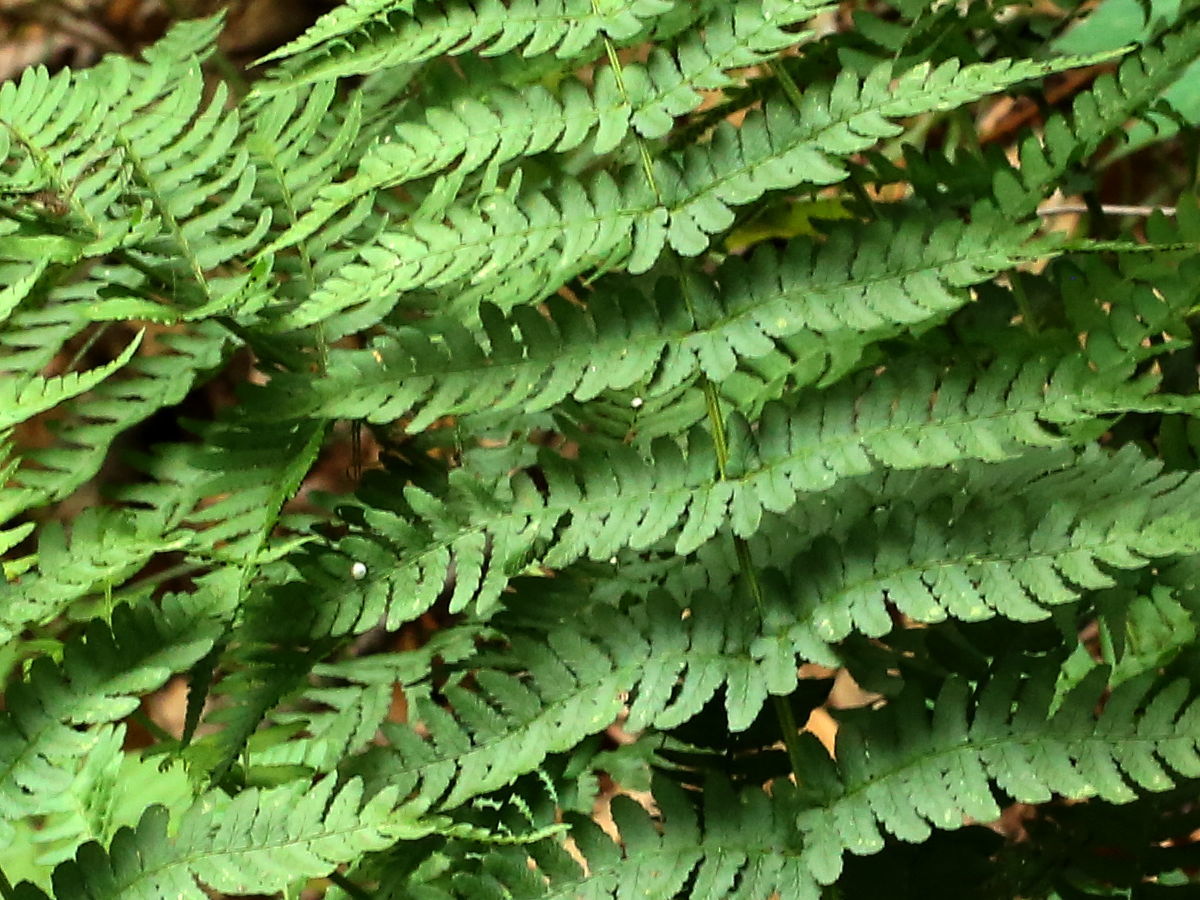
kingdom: Plantae
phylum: Tracheophyta
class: Polypodiopsida
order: Polypodiales
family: Dryopteridaceae
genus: Dryopteris
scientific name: Dryopteris marginalis
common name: Marginal wood fern
